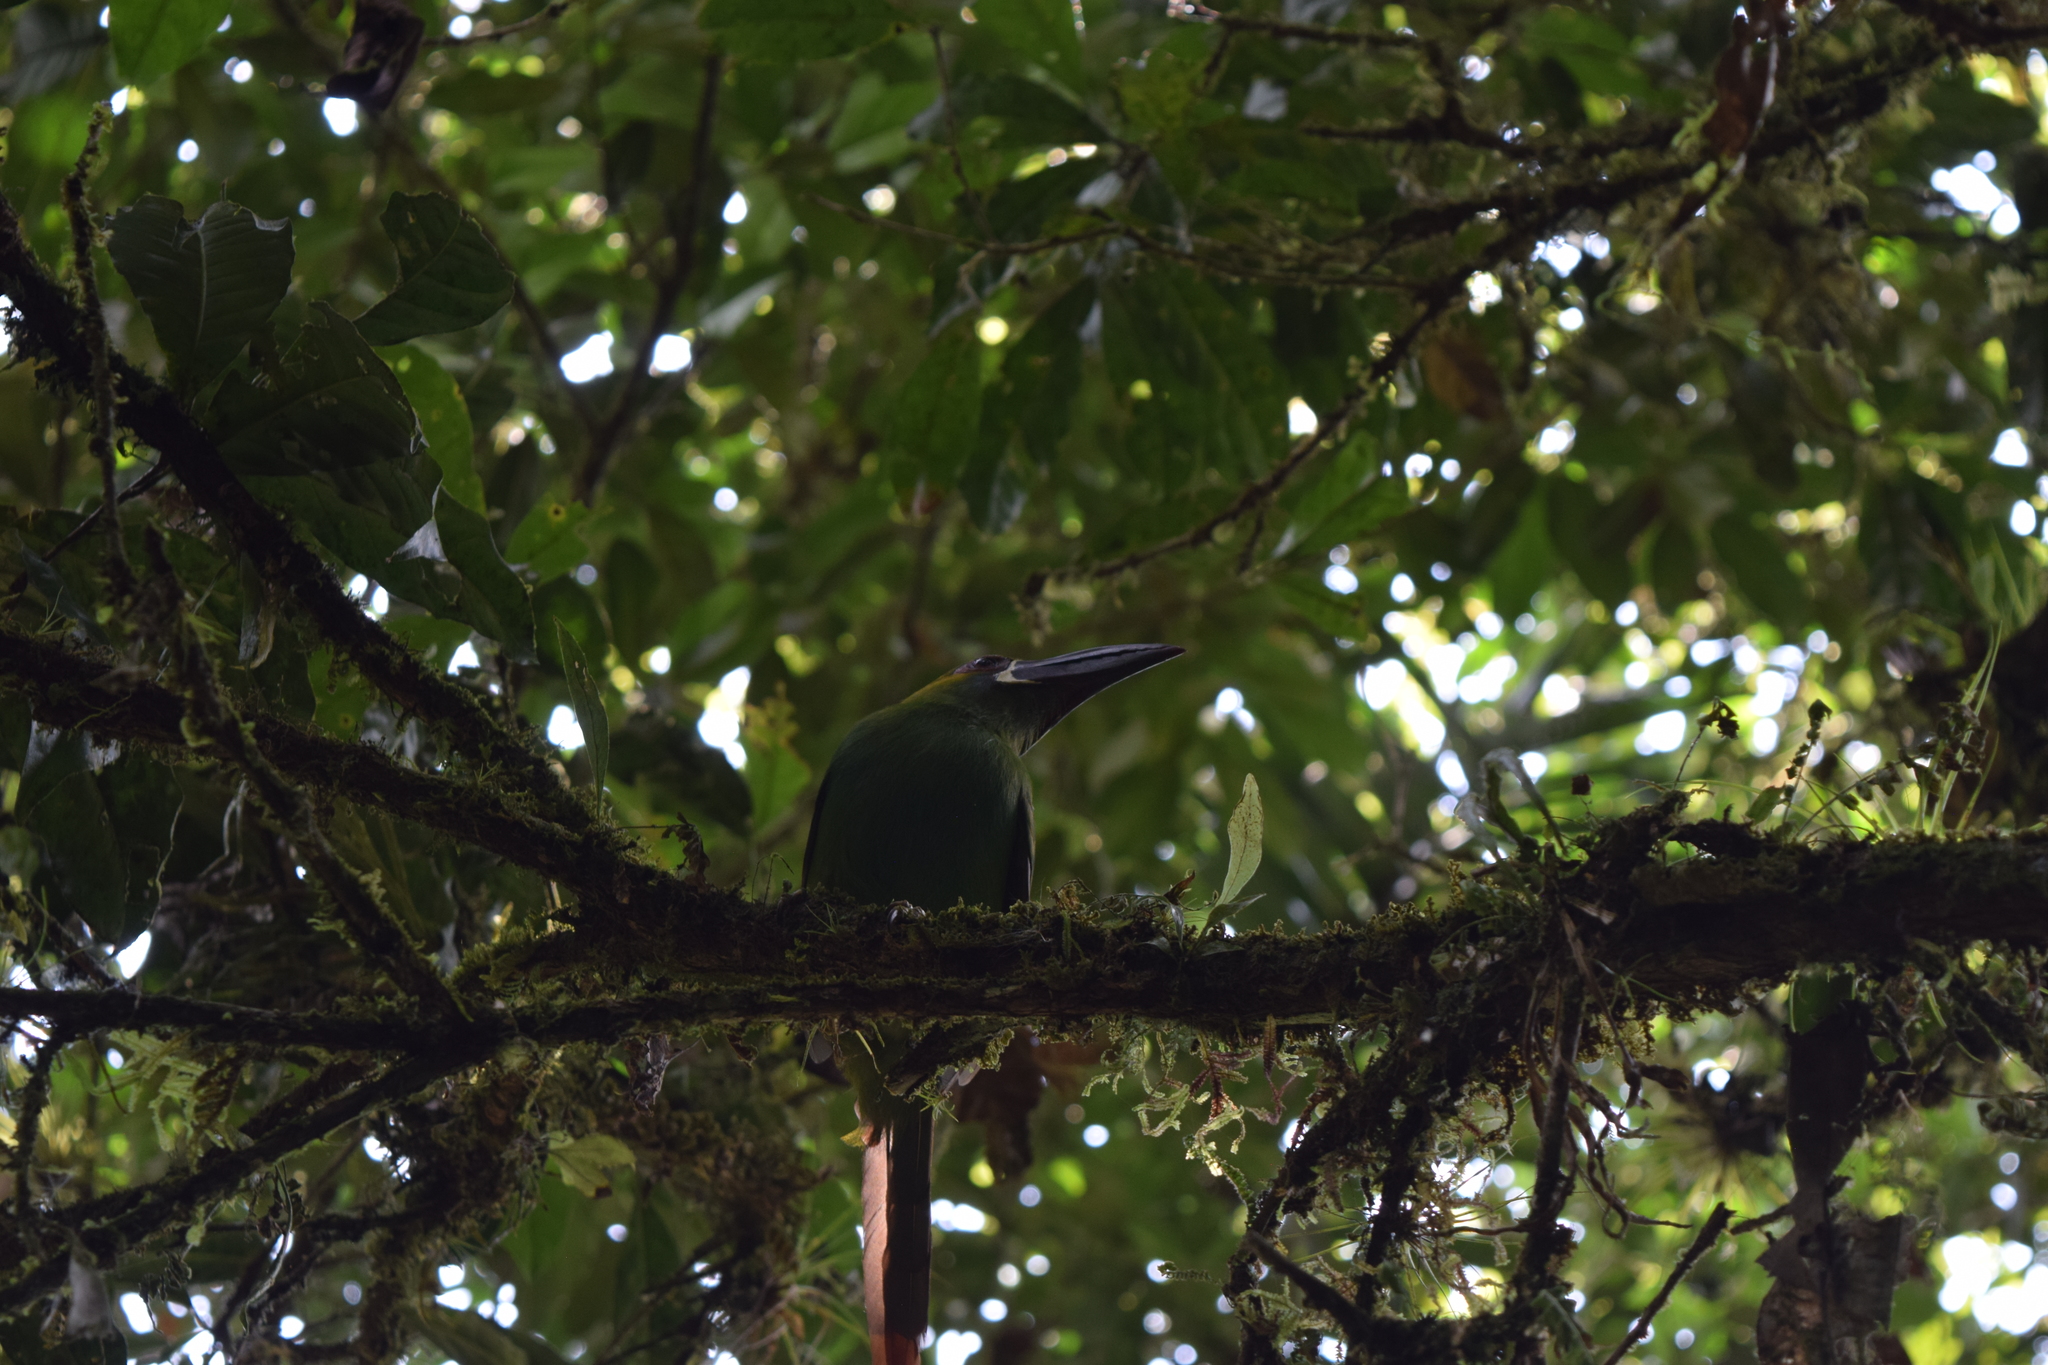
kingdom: Animalia
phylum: Chordata
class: Aves
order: Piciformes
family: Ramphastidae
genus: Aulacorhynchus
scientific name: Aulacorhynchus haematopygus
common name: Crimson-rumped toucanet
